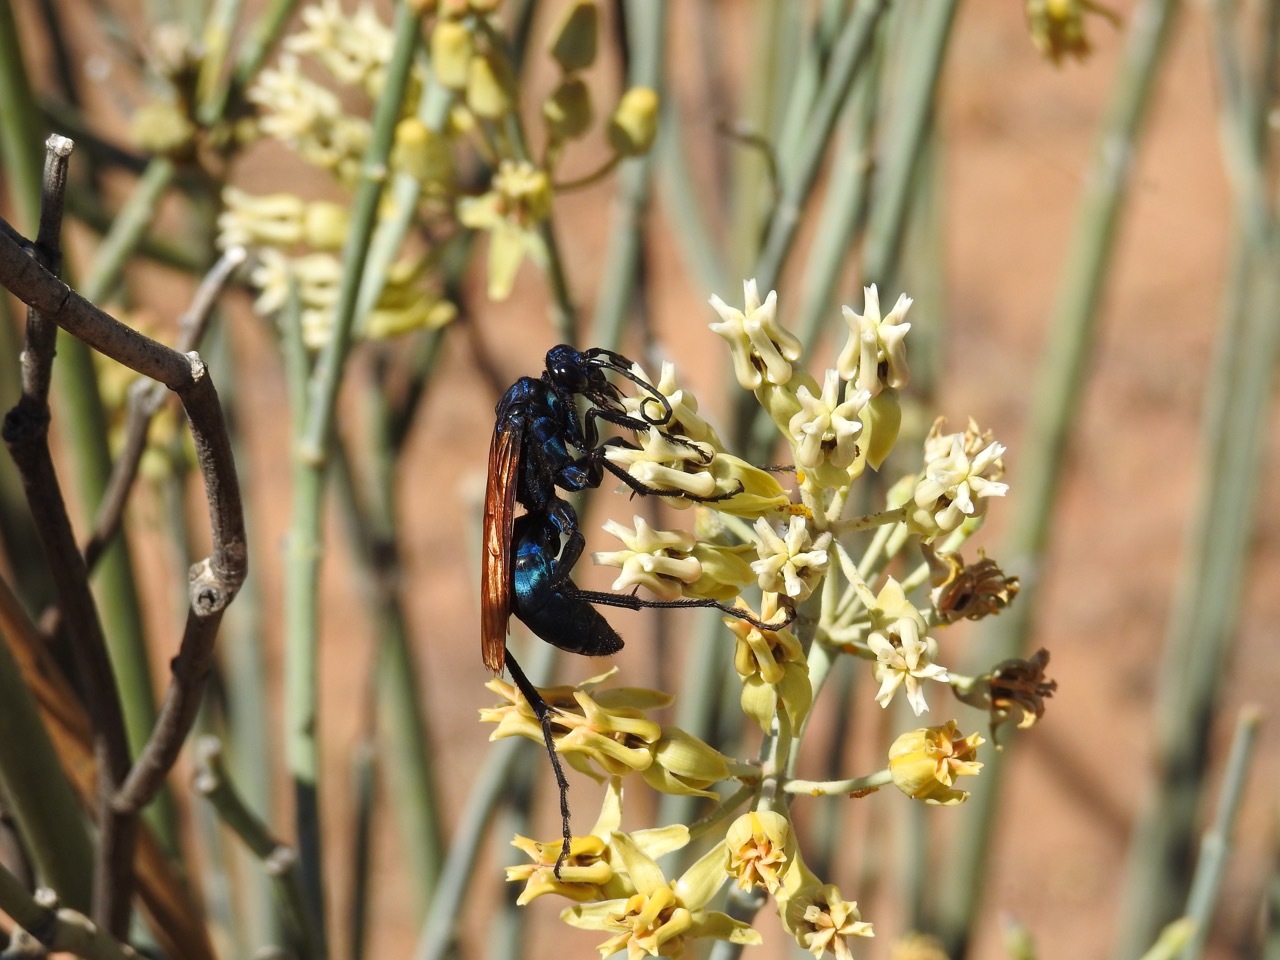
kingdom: Animalia
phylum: Arthropoda
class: Insecta
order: Hymenoptera
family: Pompilidae
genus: Pepsis
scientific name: Pepsis thisbe
